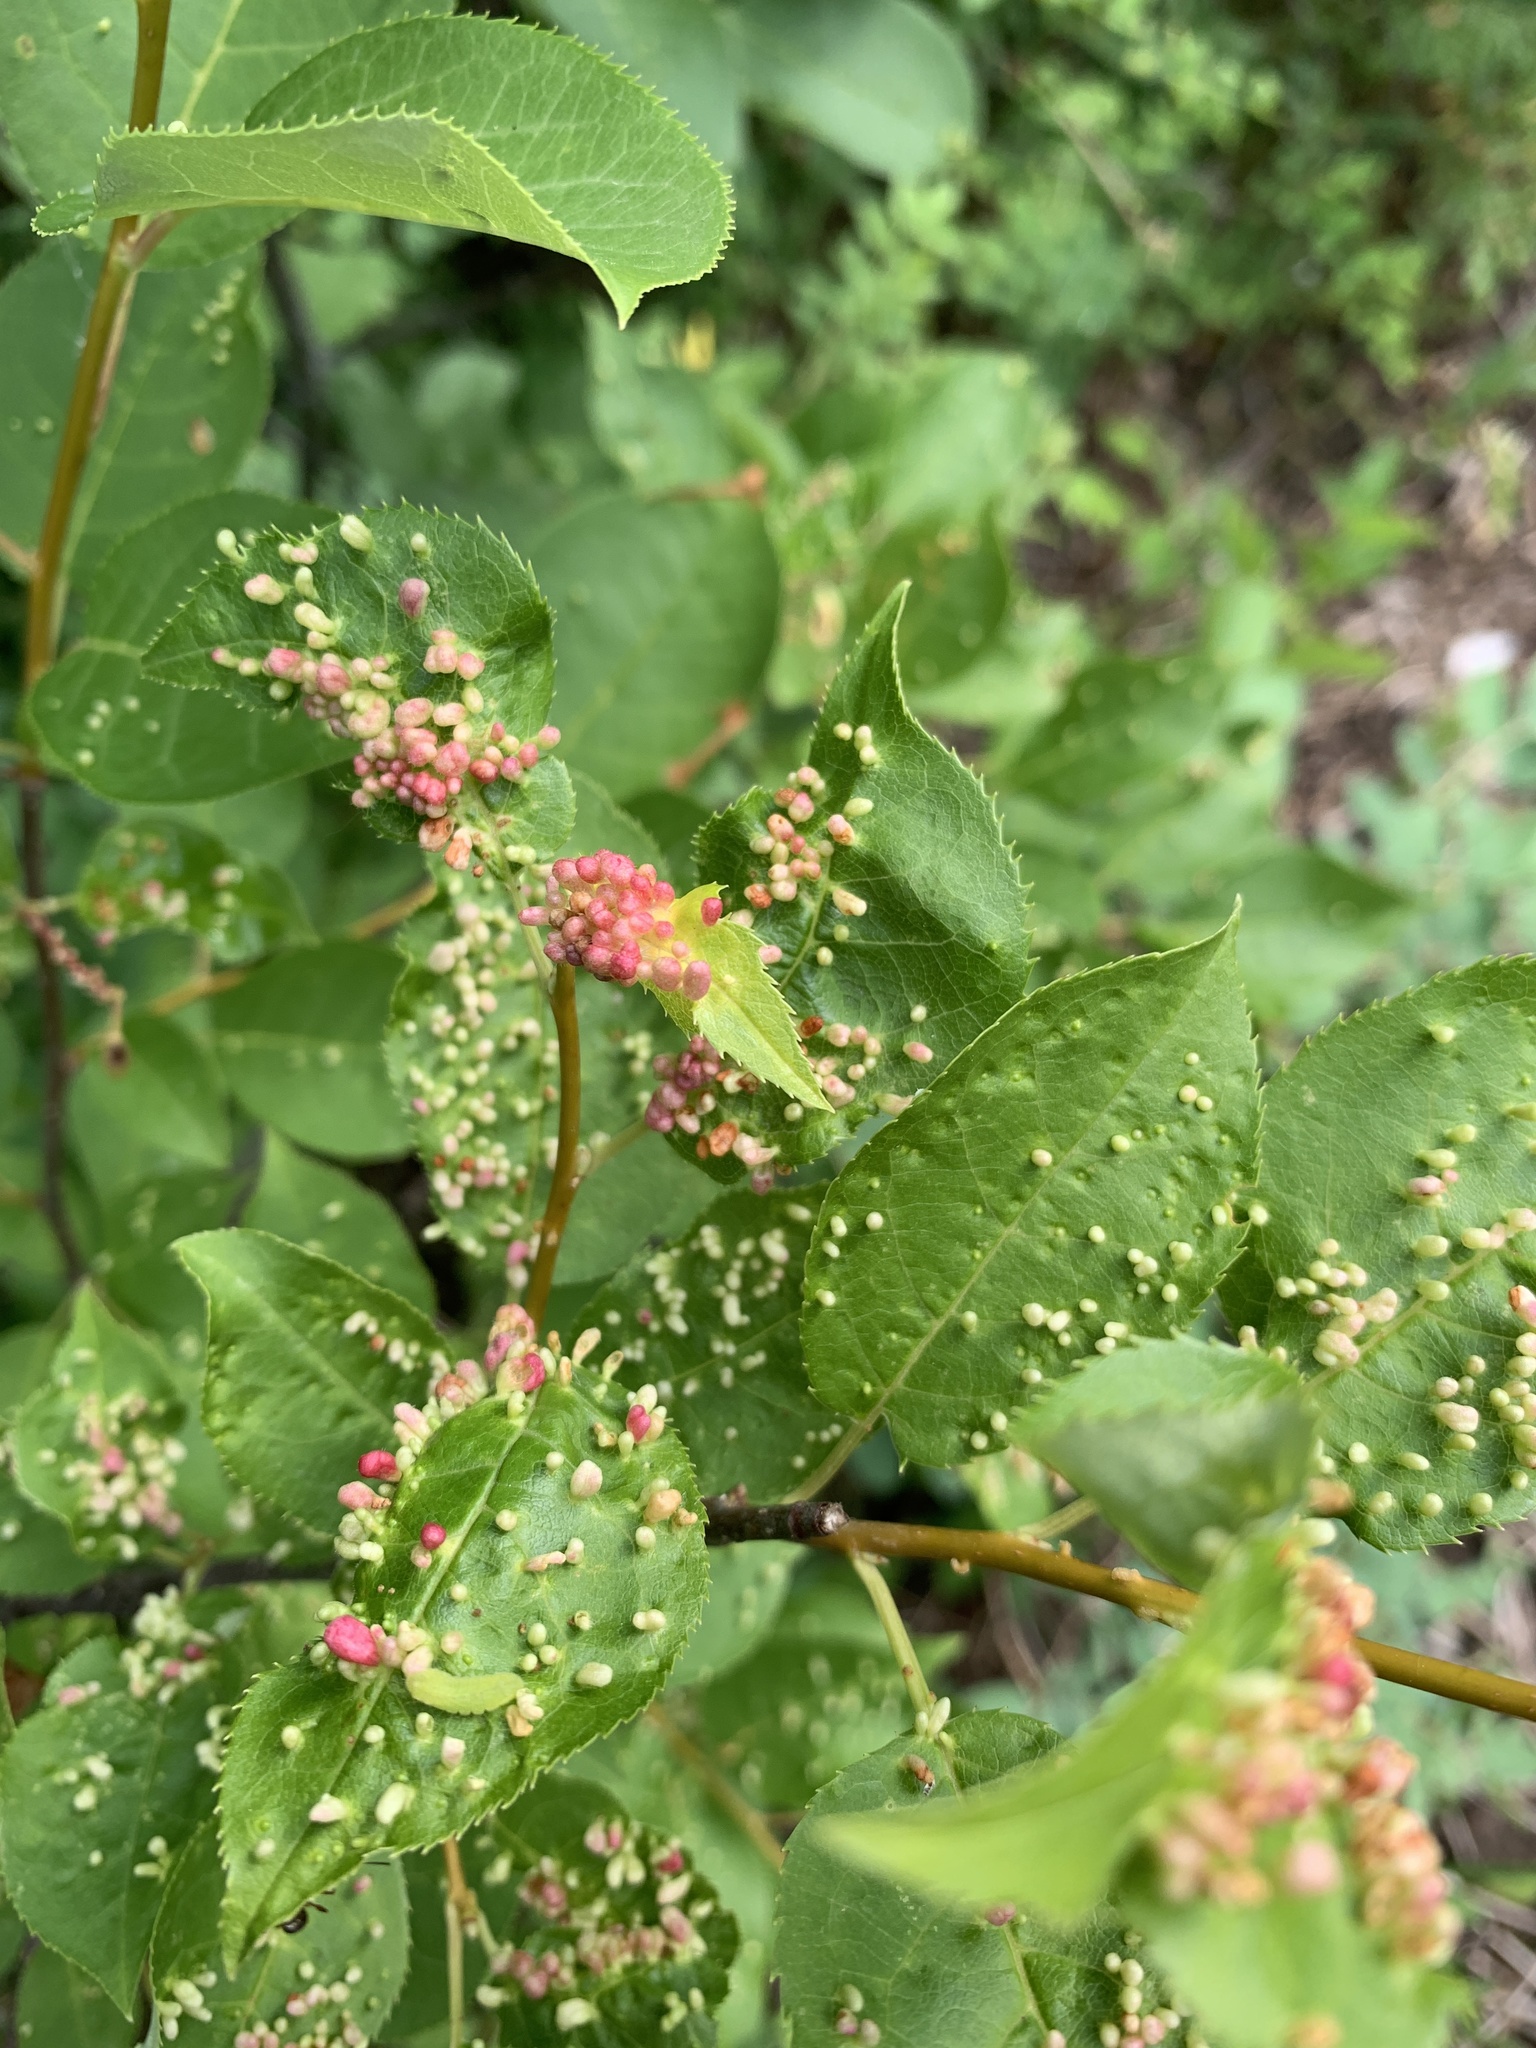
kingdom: Animalia
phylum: Arthropoda
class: Arachnida
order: Trombidiformes
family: Eriophyidae
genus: Eriophyes
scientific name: Eriophyes emarginatae
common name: Plum leaf gall mite
